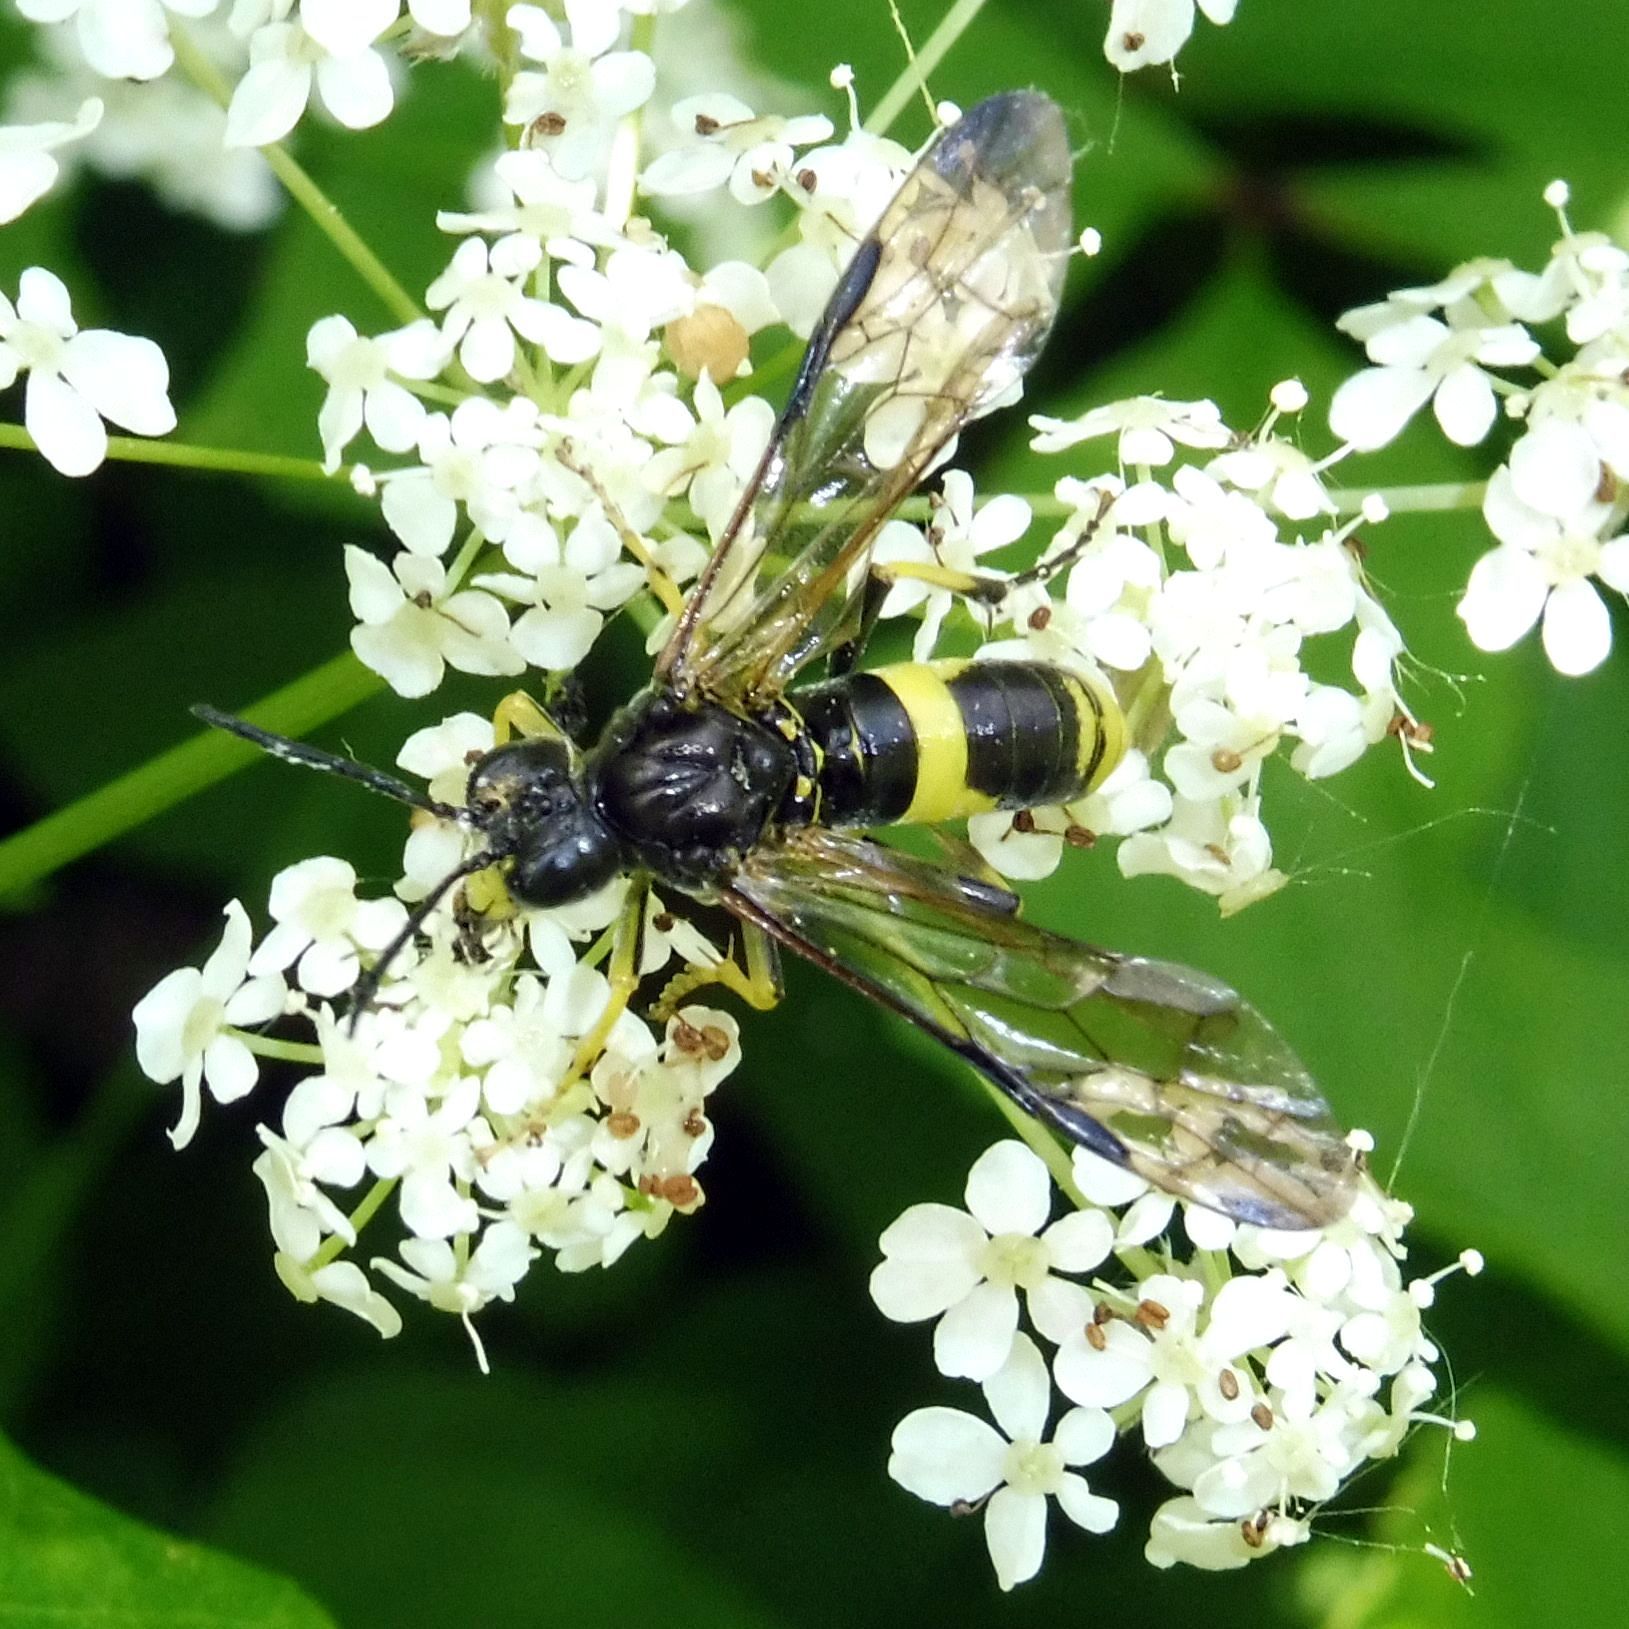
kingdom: Animalia
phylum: Arthropoda
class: Insecta
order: Hymenoptera
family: Tenthredinidae
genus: Tenthredo
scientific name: Tenthredo temula
